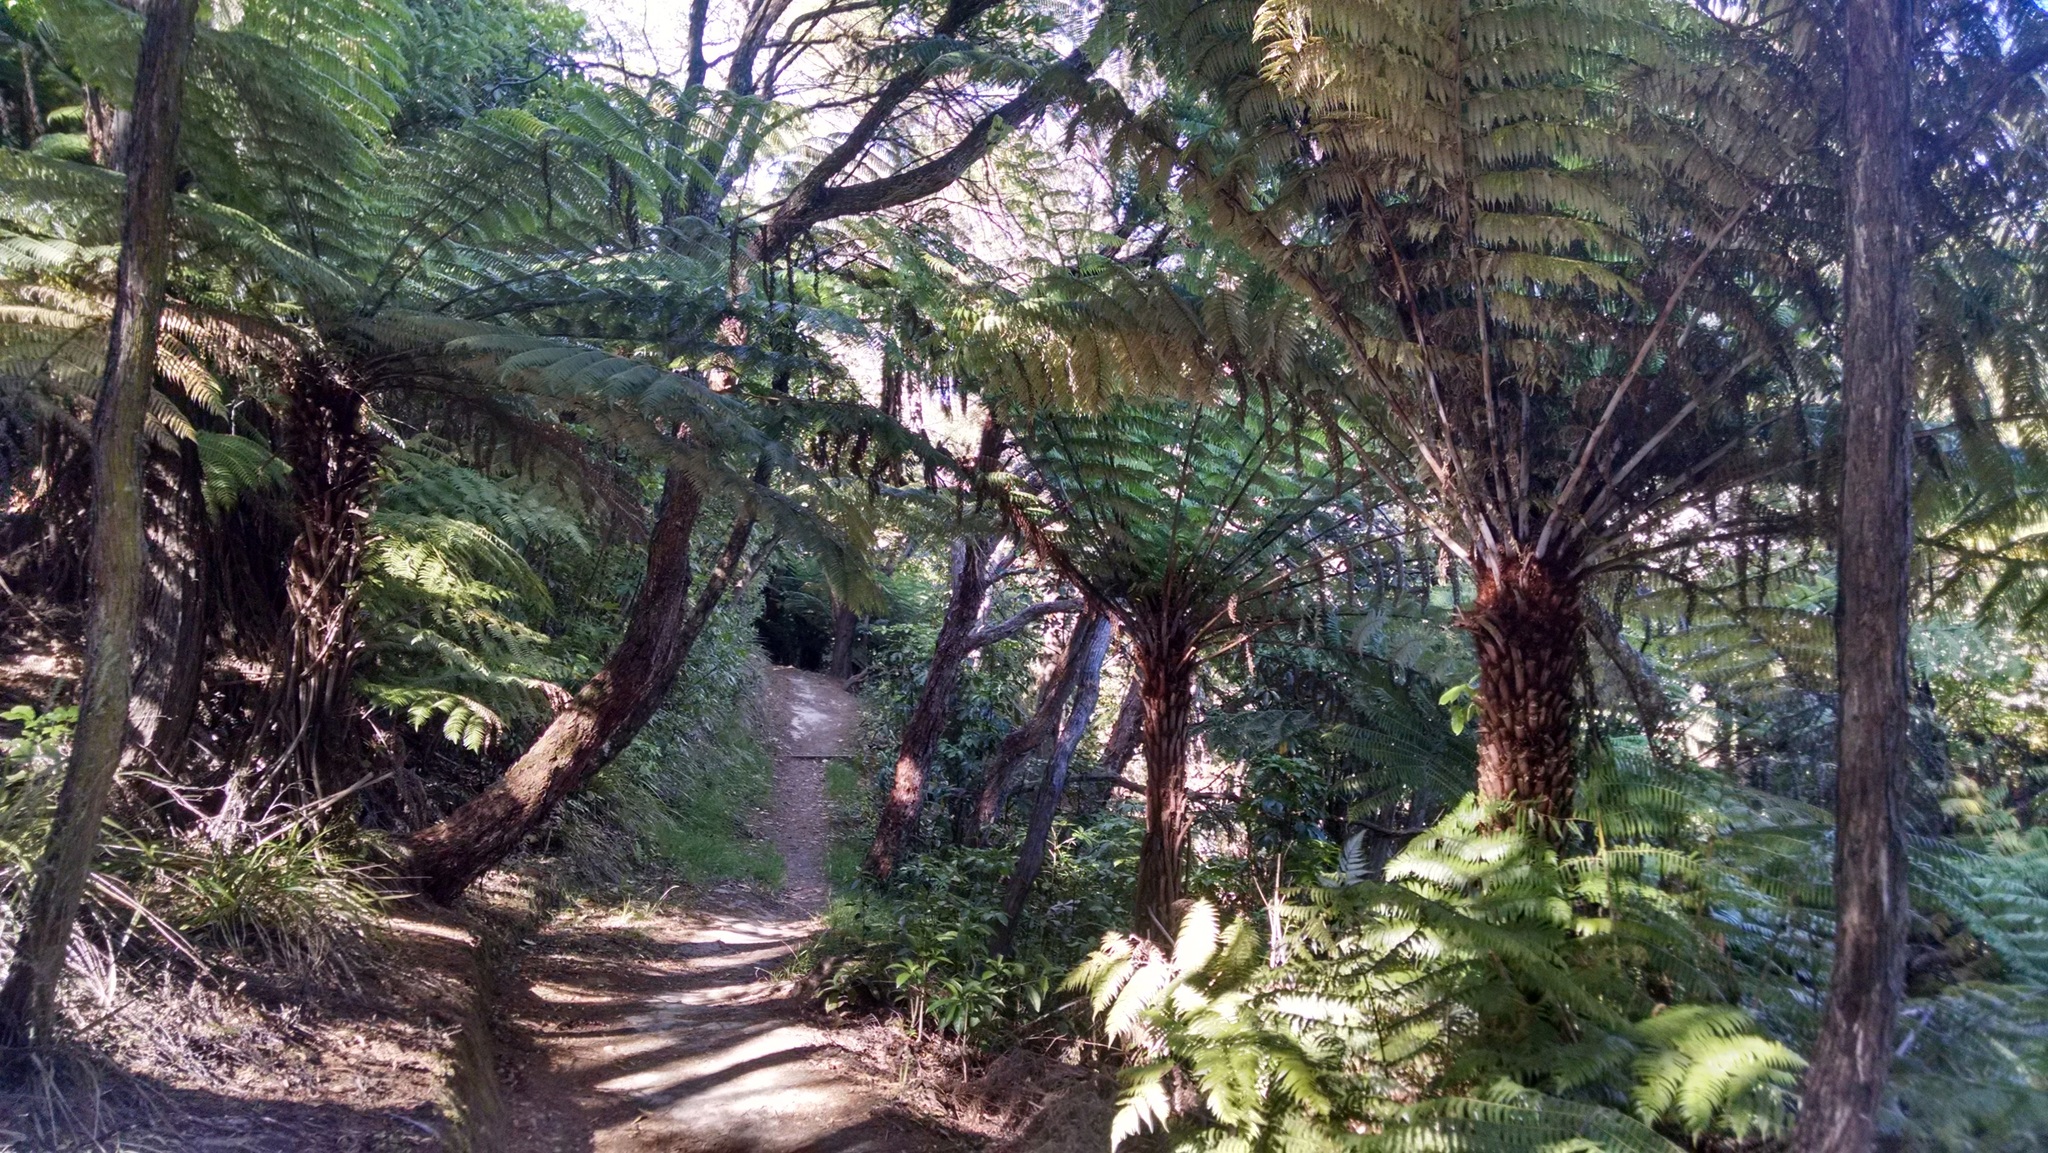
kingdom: Plantae
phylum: Tracheophyta
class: Polypodiopsida
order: Cyatheales
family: Cyatheaceae
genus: Alsophila
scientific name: Alsophila dealbata
